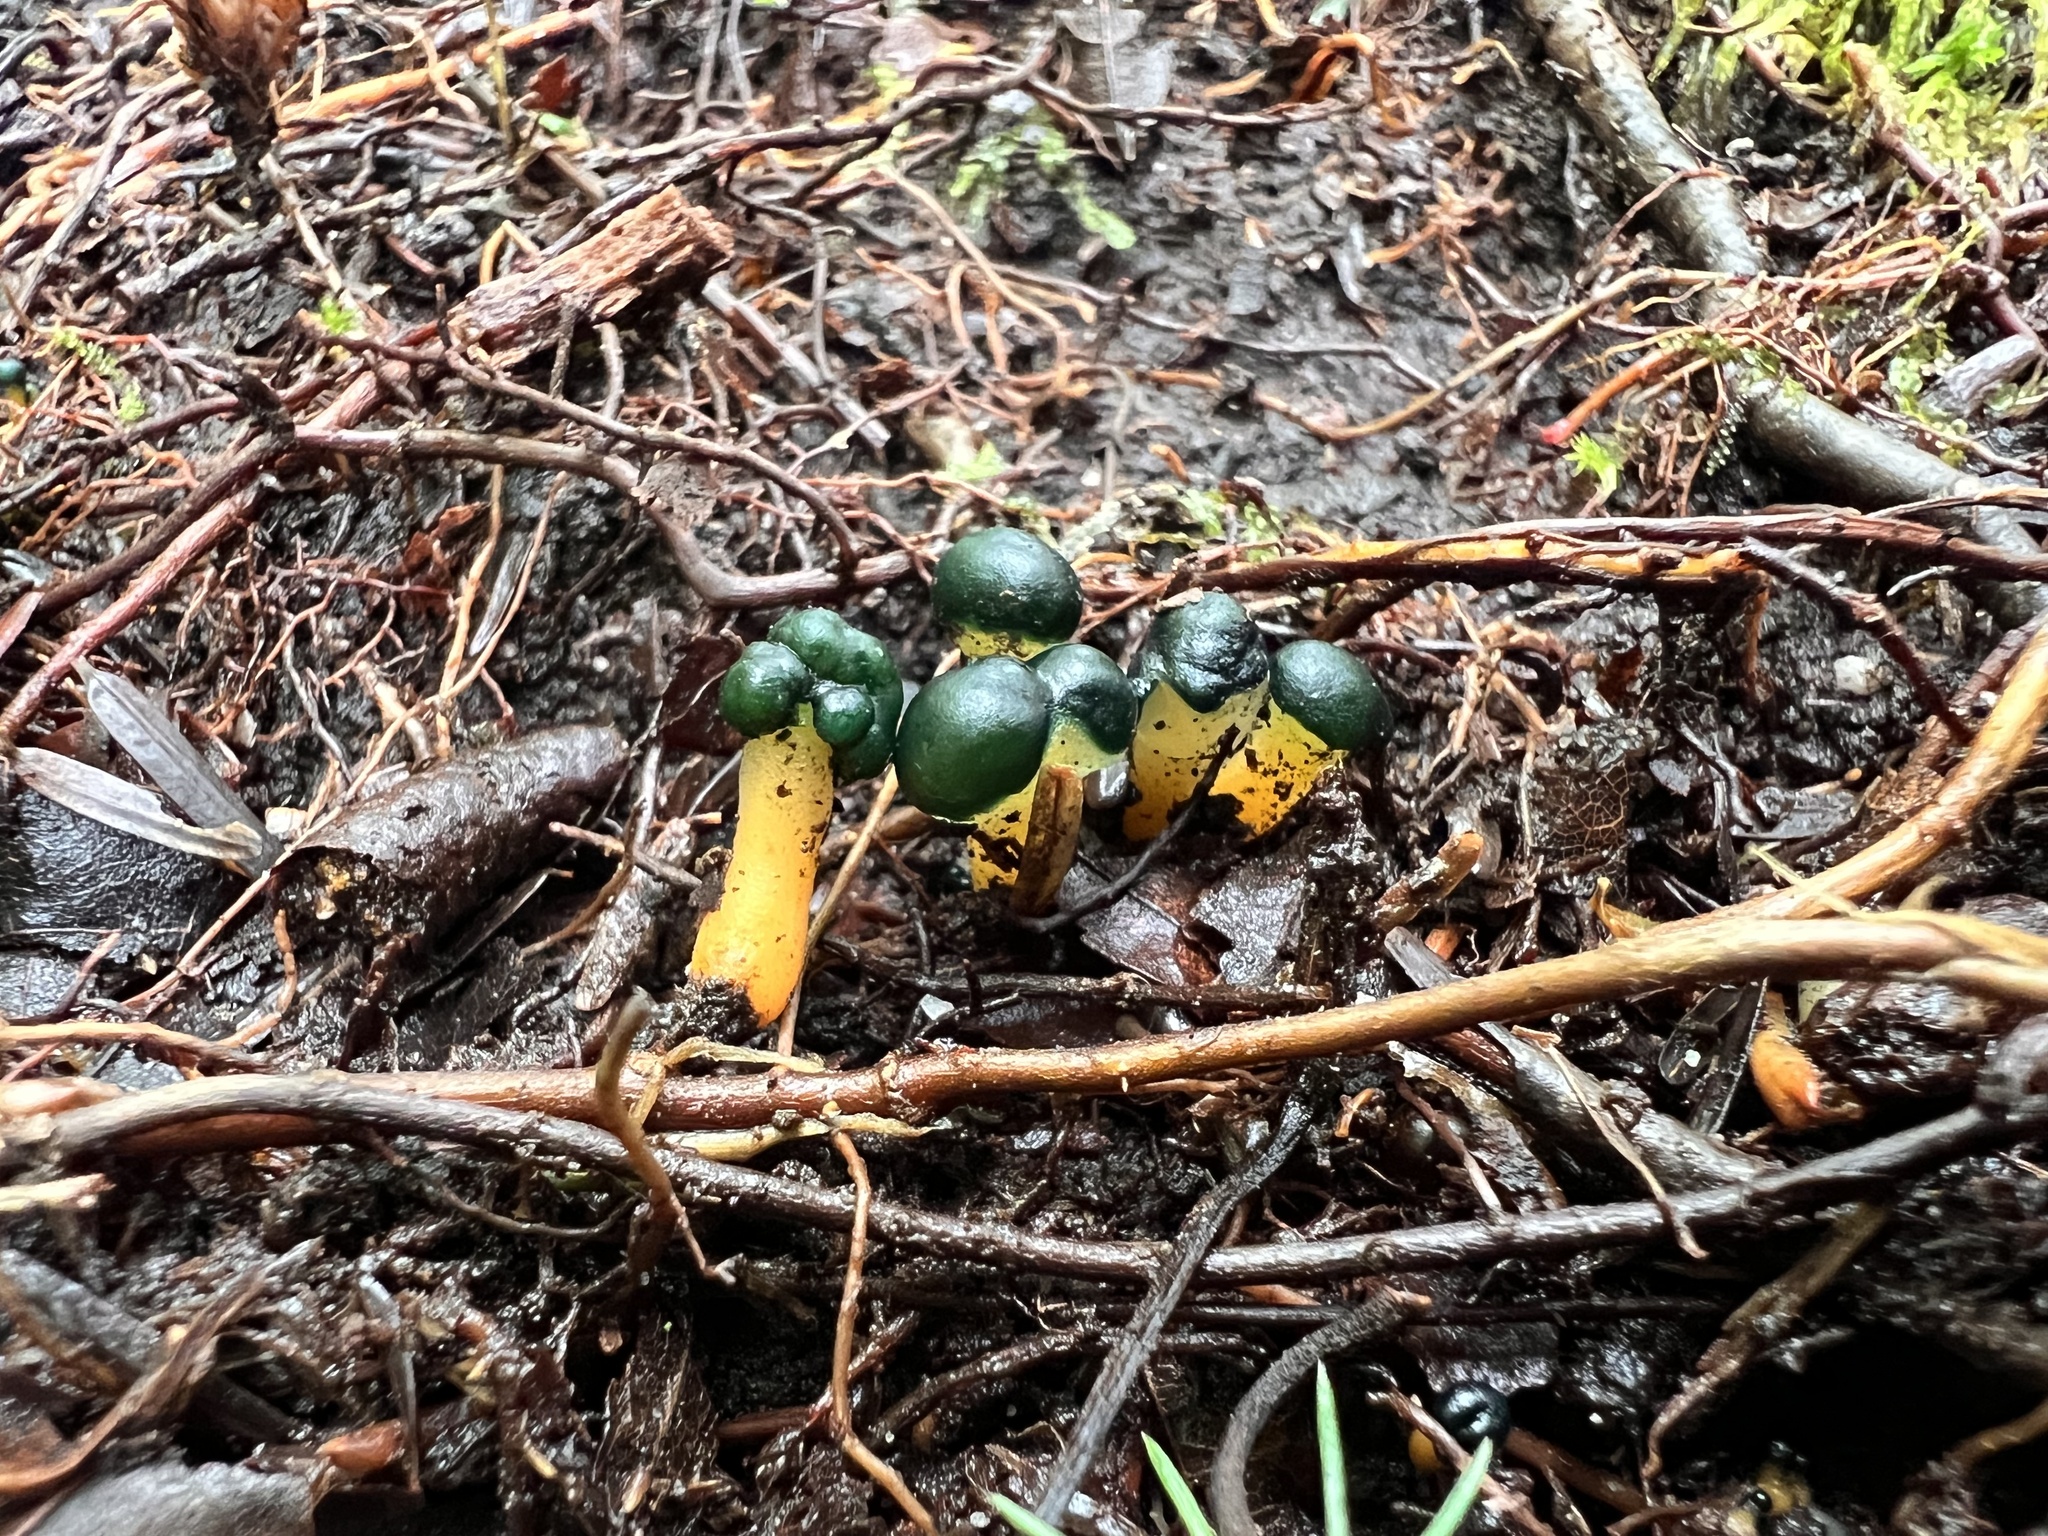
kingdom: Fungi
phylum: Ascomycota
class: Leotiomycetes
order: Leotiales
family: Leotiaceae
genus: Leotia
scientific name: Leotia lubrica
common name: Jellybaby
